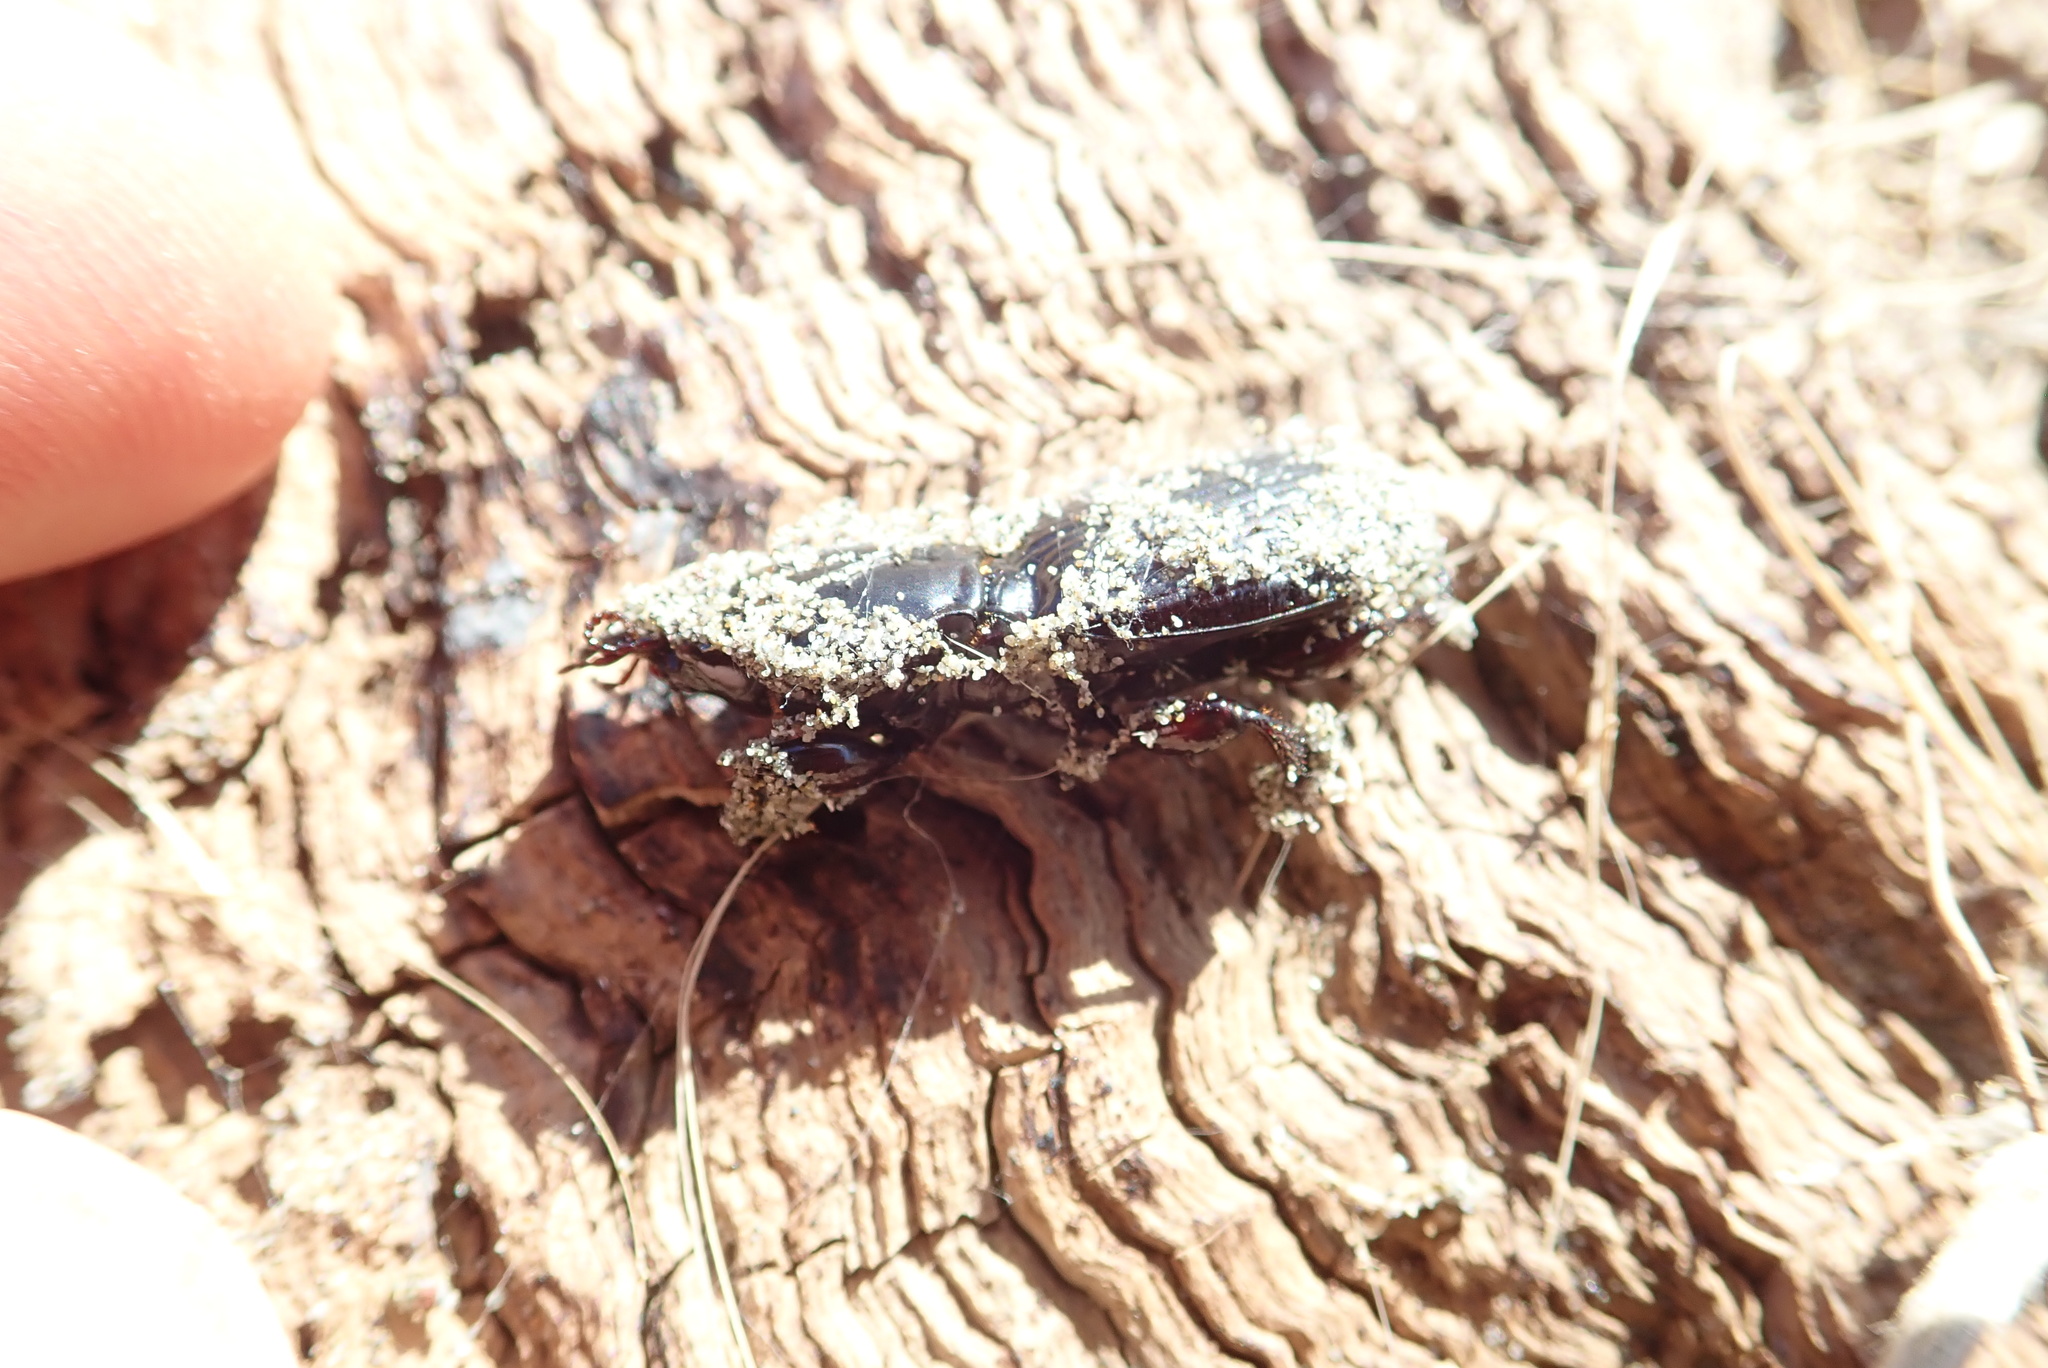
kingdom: Animalia
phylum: Arthropoda
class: Arachnida
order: Araneae
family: Theridiidae
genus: Latrodectus
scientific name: Latrodectus katipo
